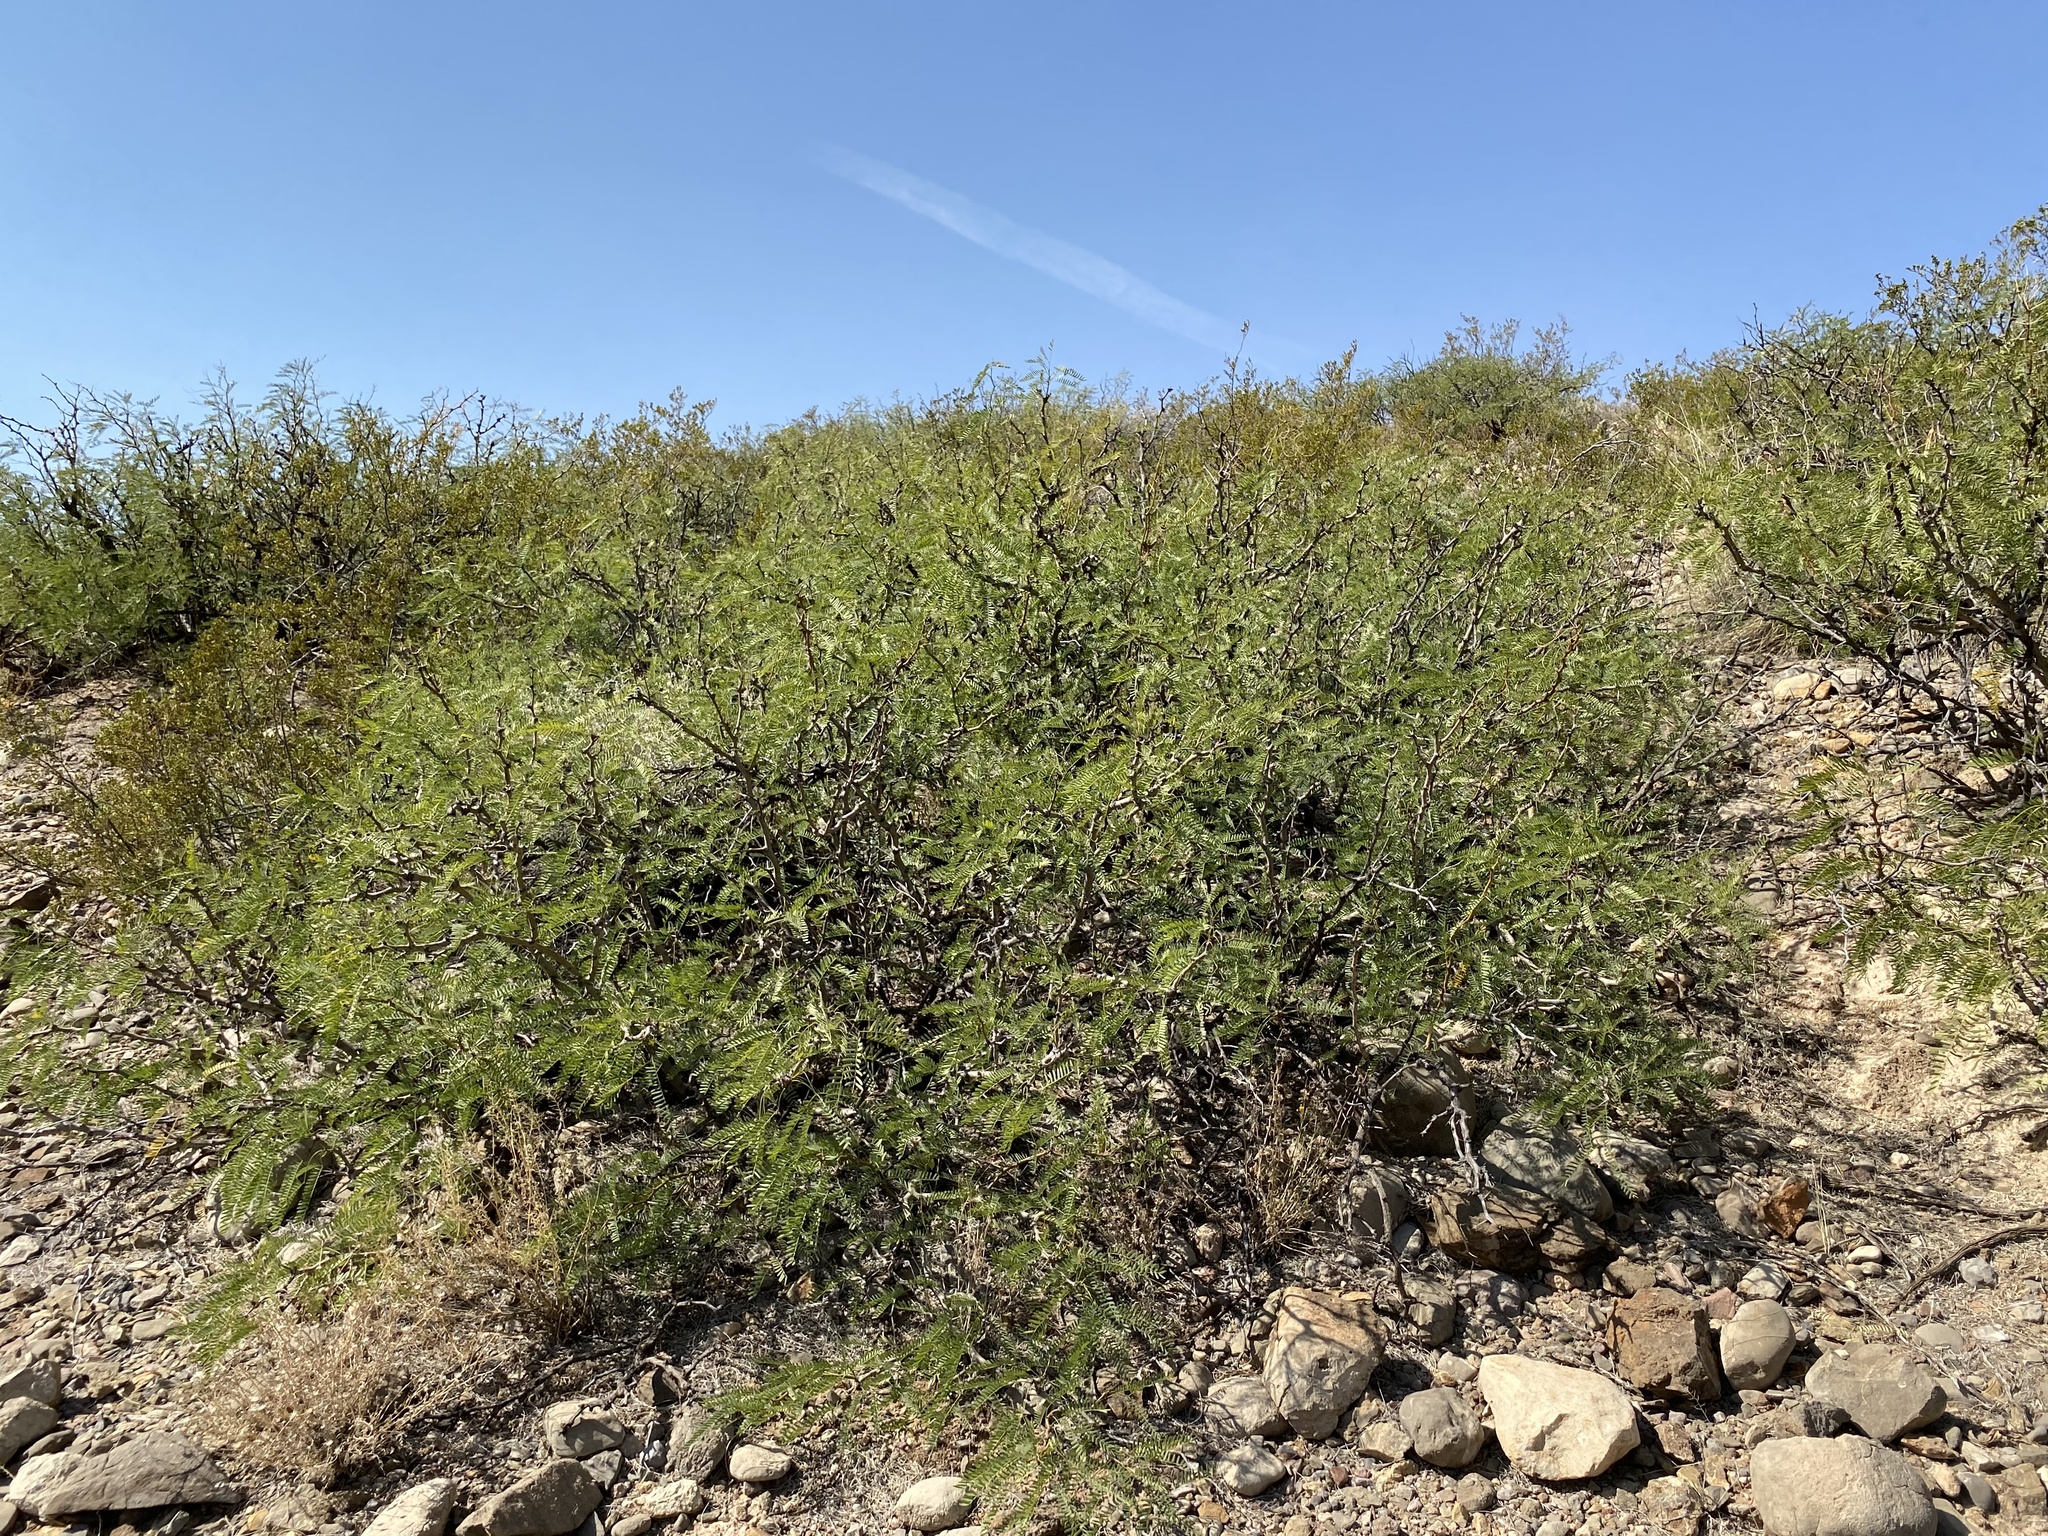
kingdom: Plantae
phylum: Tracheophyta
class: Magnoliopsida
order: Fabales
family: Fabaceae
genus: Prosopis
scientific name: Prosopis glandulosa
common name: Honey mesquite
